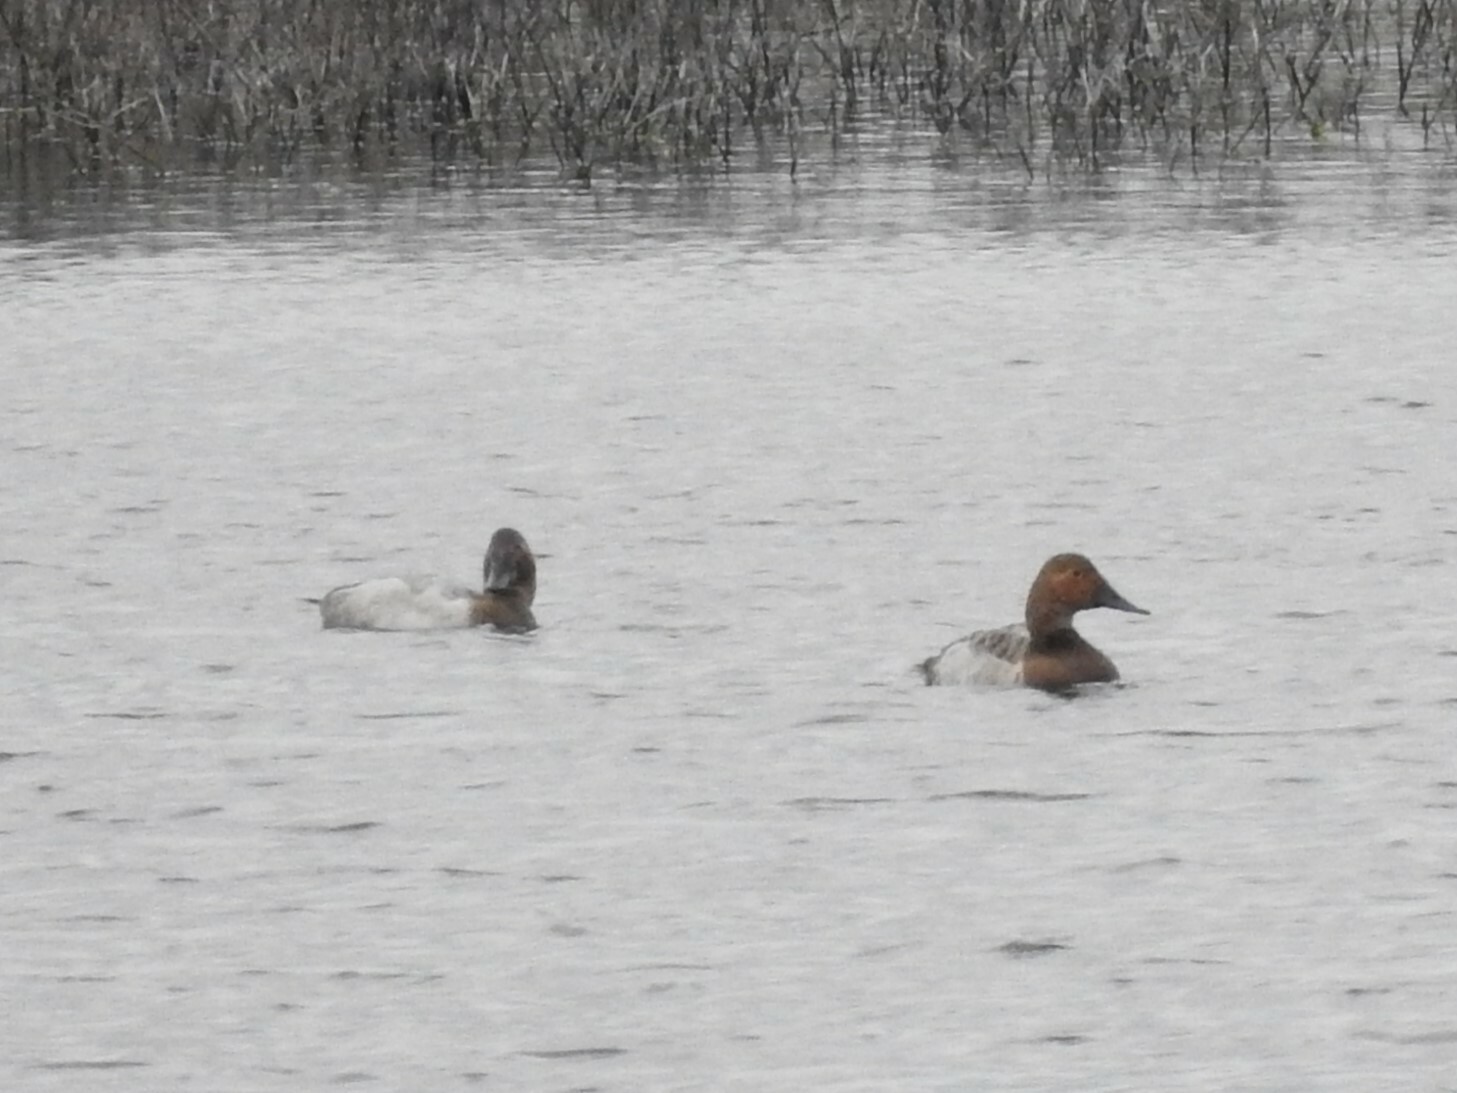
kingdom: Animalia
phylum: Chordata
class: Aves
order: Anseriformes
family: Anatidae
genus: Aythya
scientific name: Aythya valisineria
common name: Canvasback
